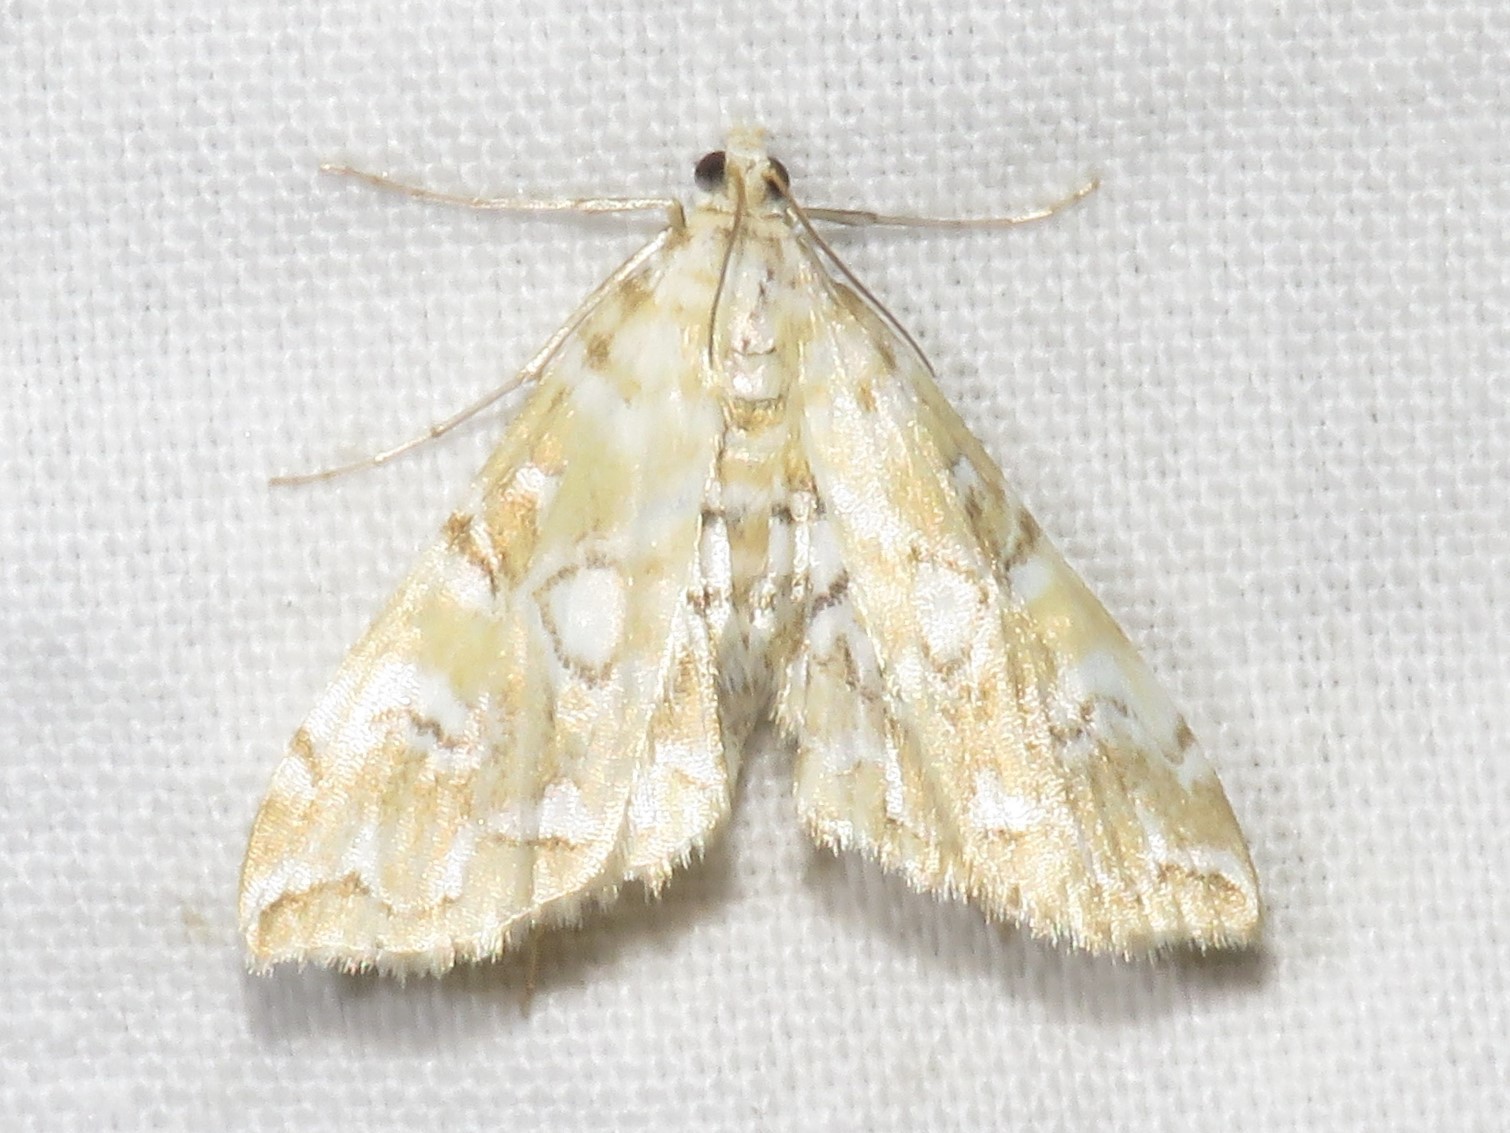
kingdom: Animalia
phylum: Arthropoda
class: Insecta
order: Lepidoptera
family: Crambidae
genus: Elophila
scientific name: Elophila icciusalis
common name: Pondside pyralid moth
